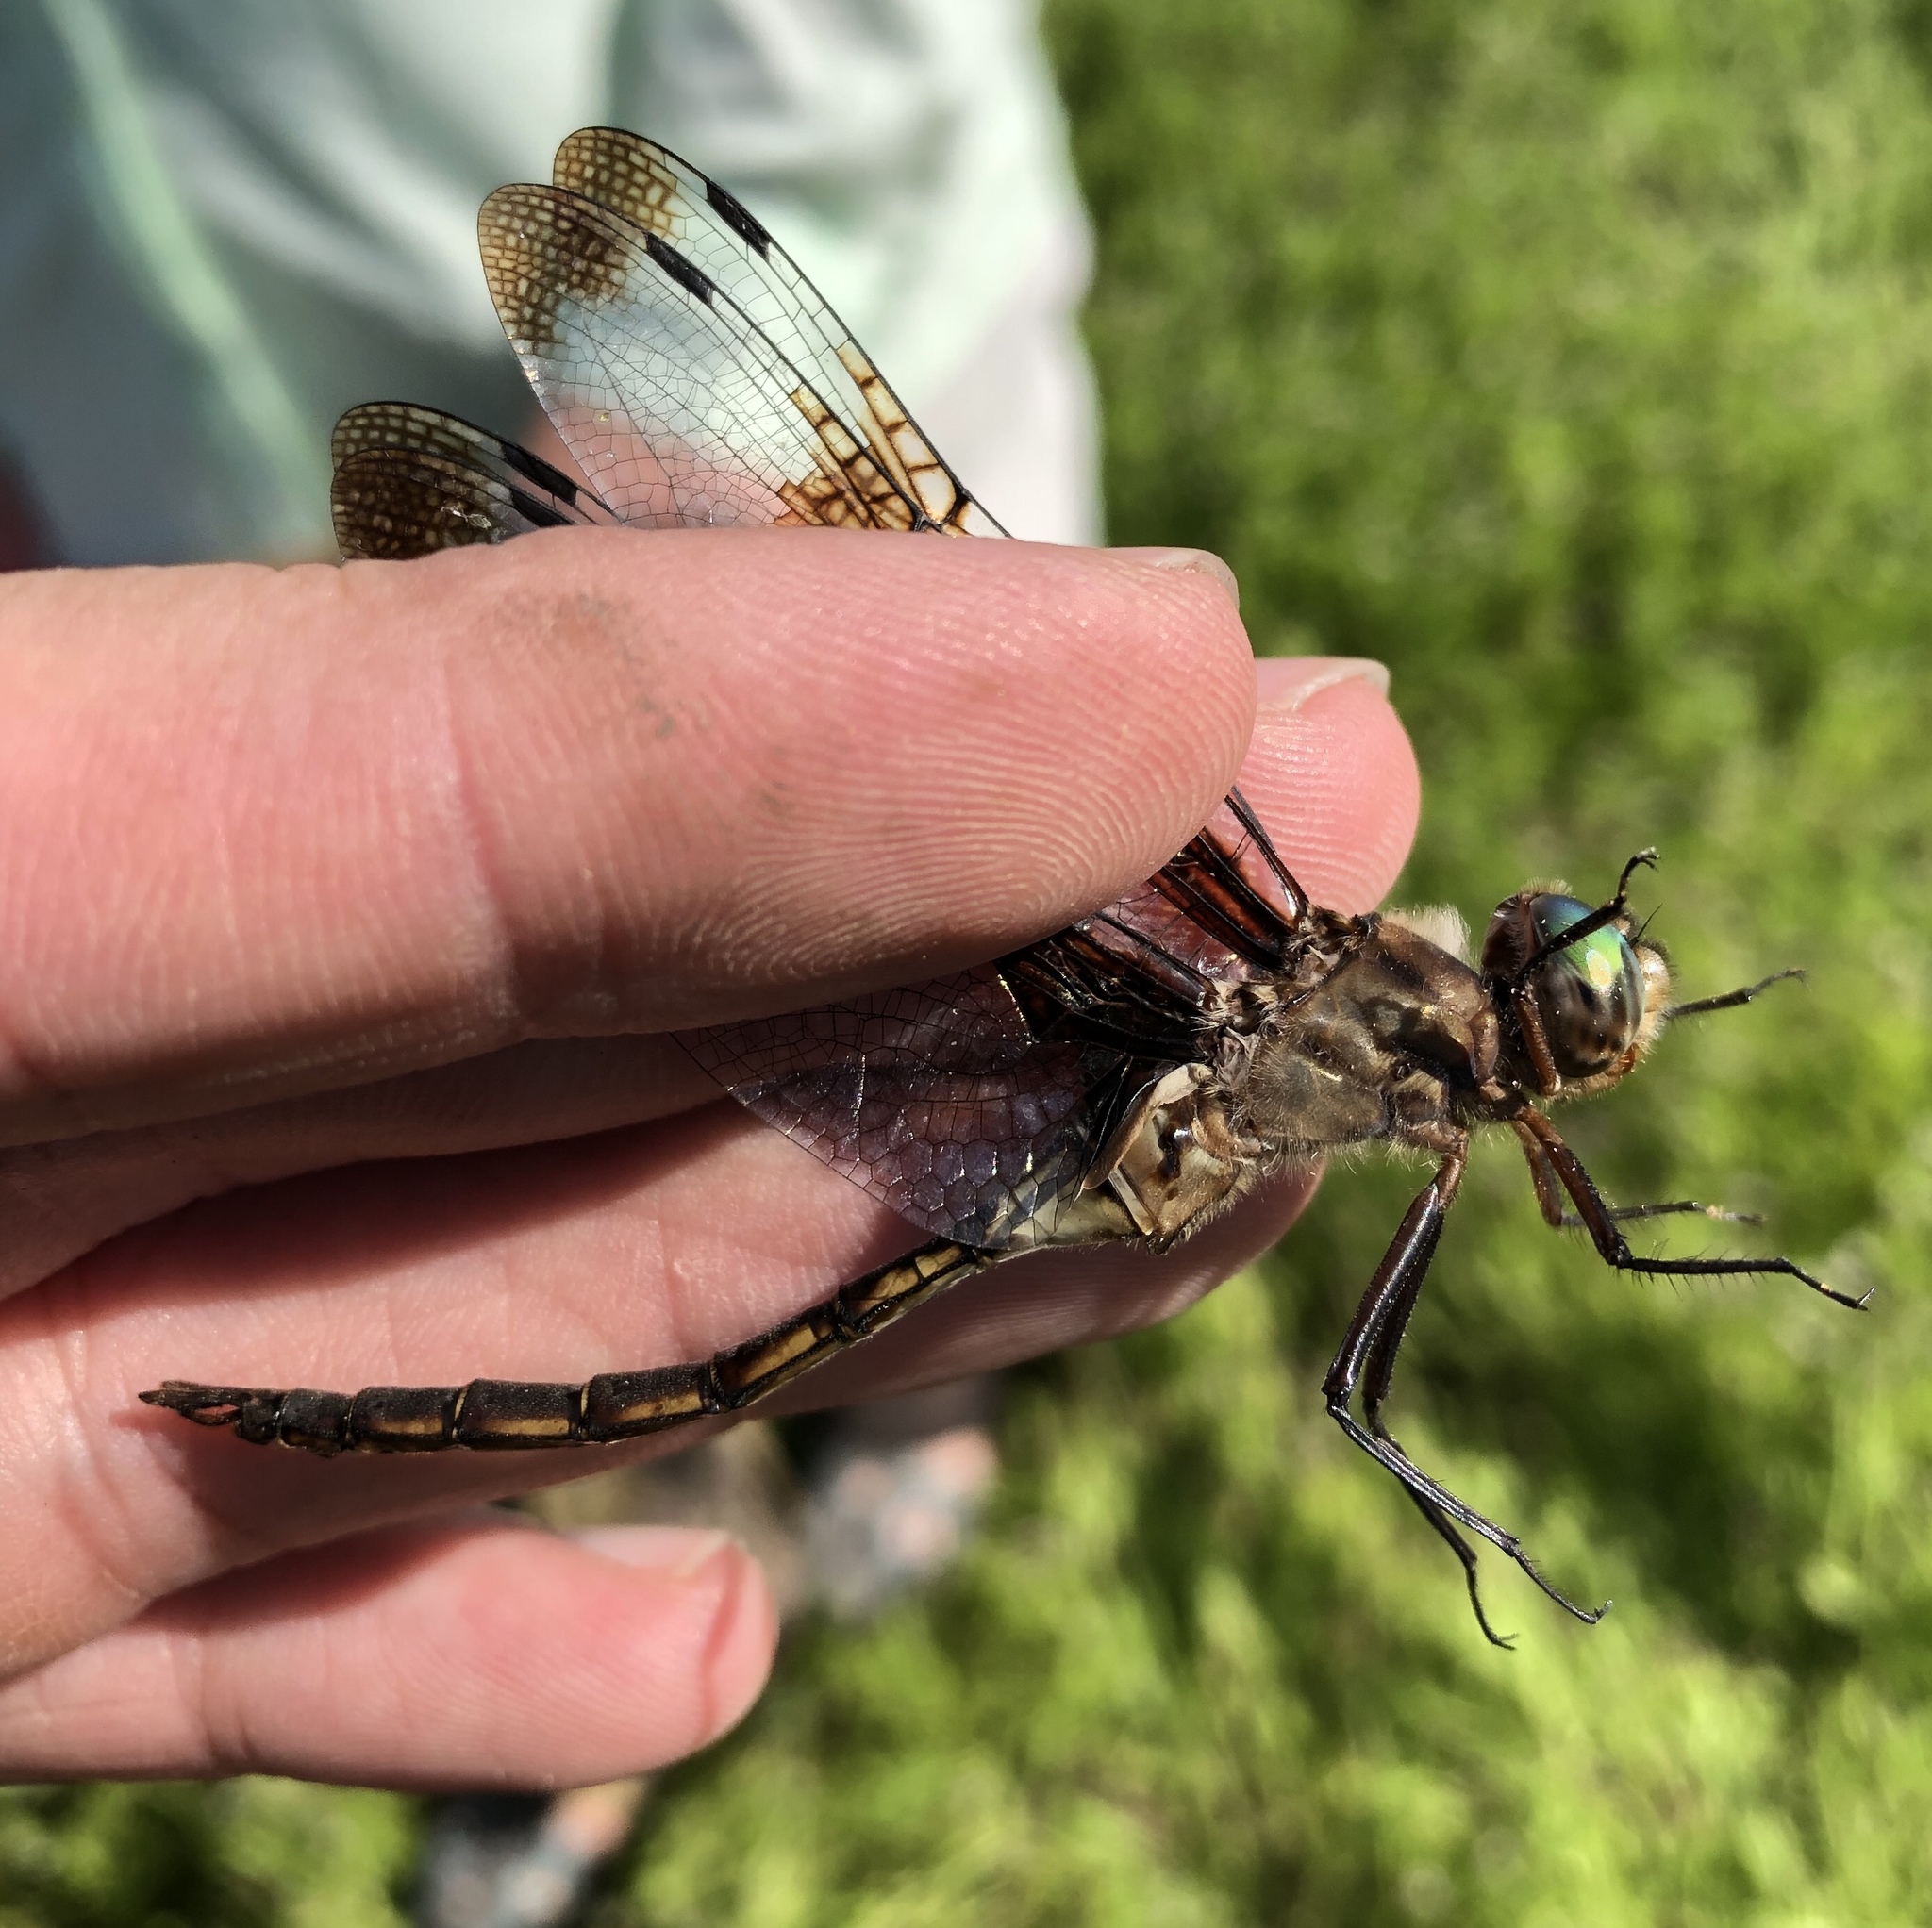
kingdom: Animalia
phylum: Arthropoda
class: Insecta
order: Odonata
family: Corduliidae
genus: Epitheca
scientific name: Epitheca princeps
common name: Prince baskettail
